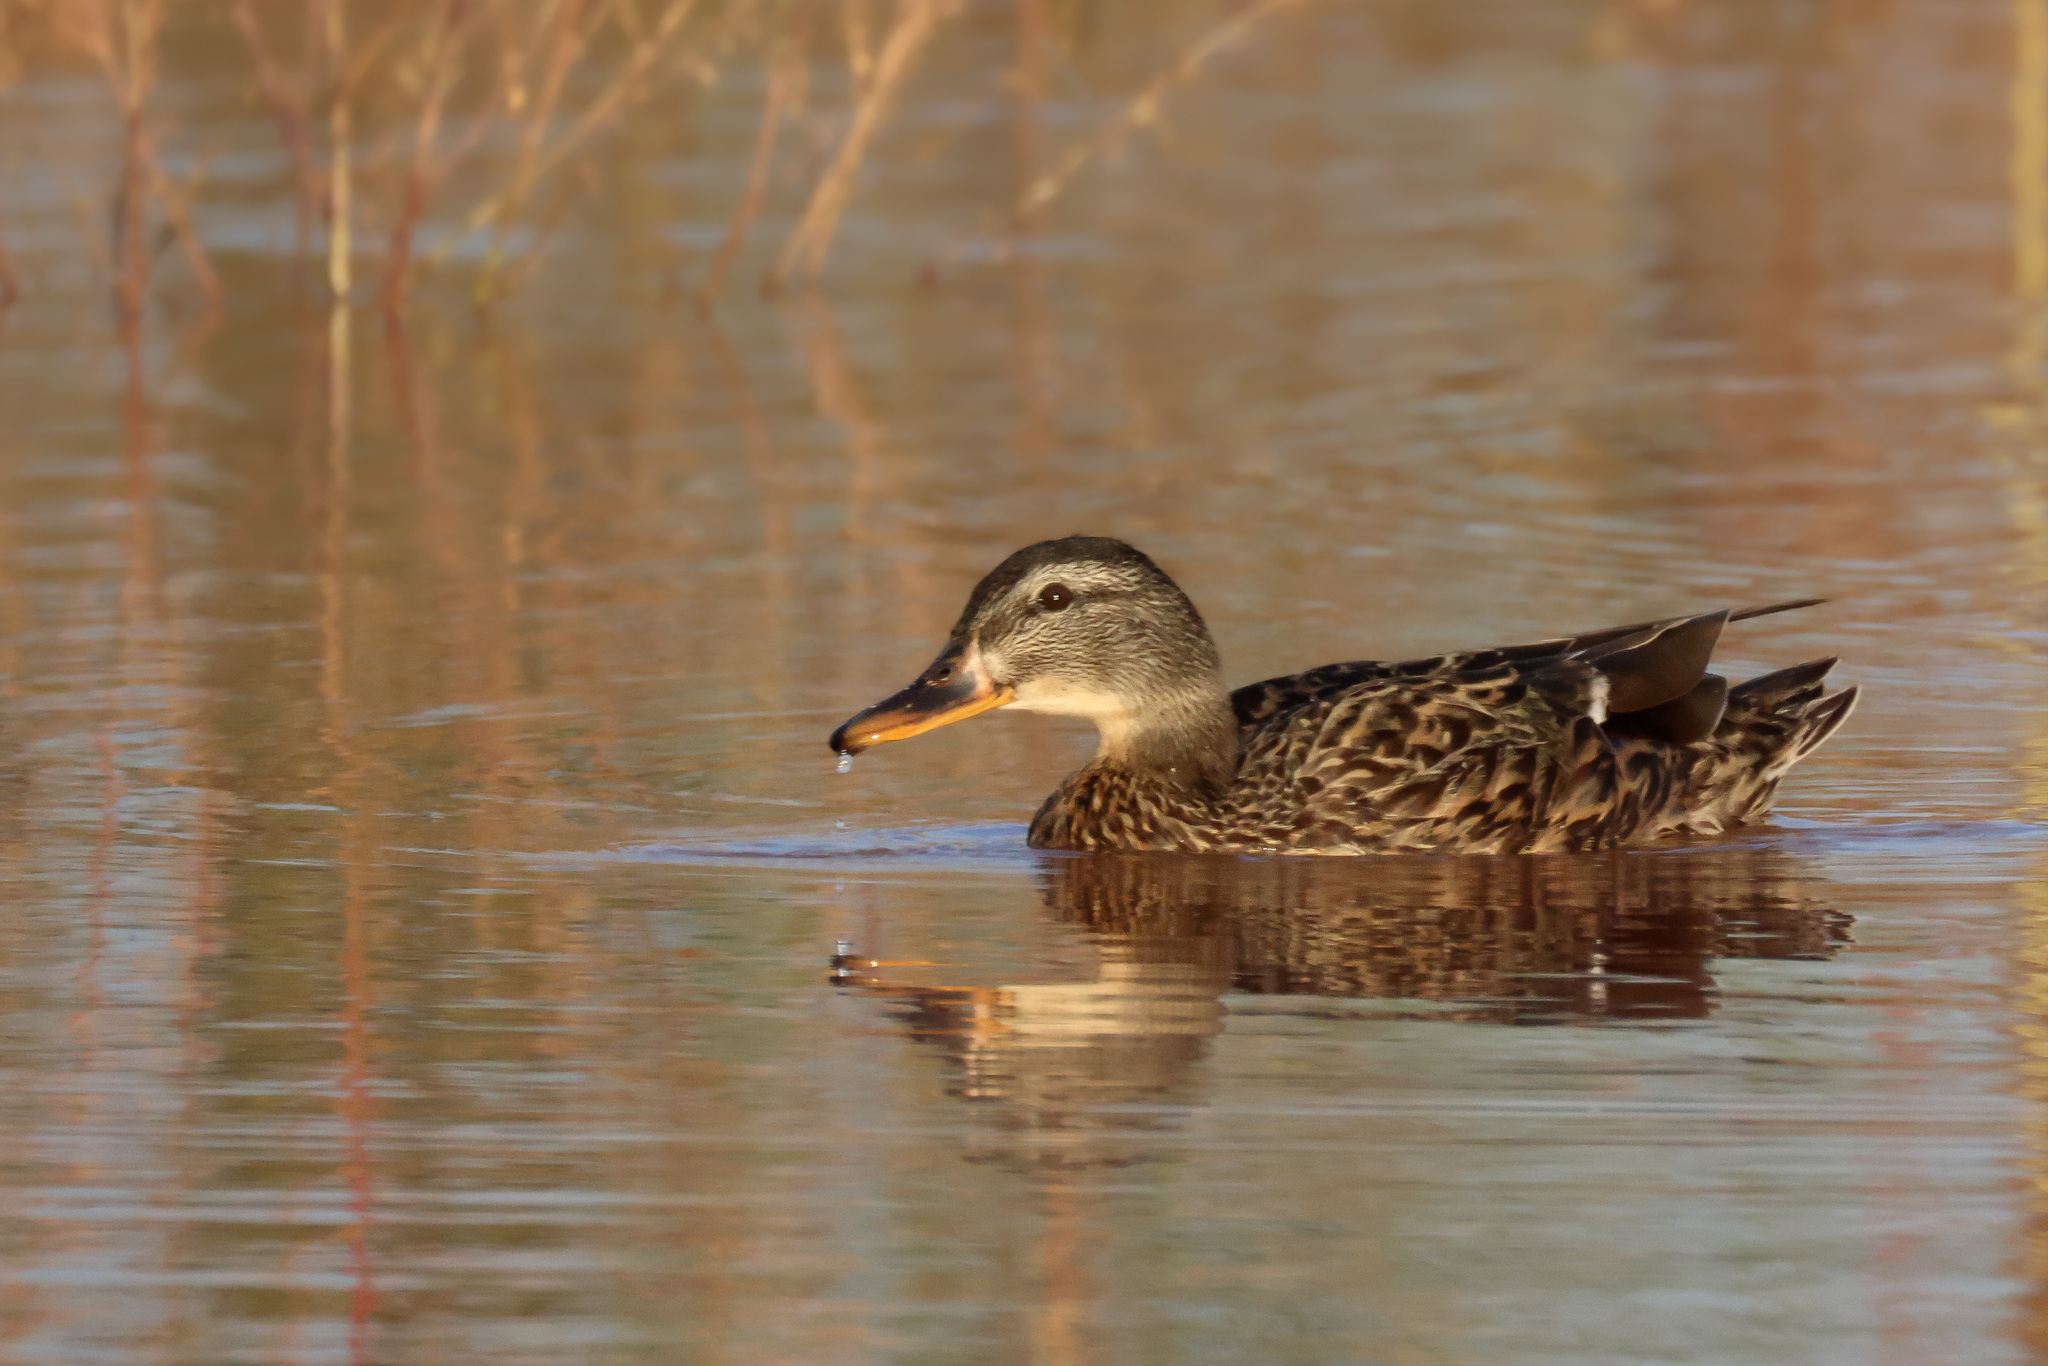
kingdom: Animalia
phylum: Chordata
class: Aves
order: Anseriformes
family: Anatidae
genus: Anas
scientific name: Anas platyrhynchos
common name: Mallard
